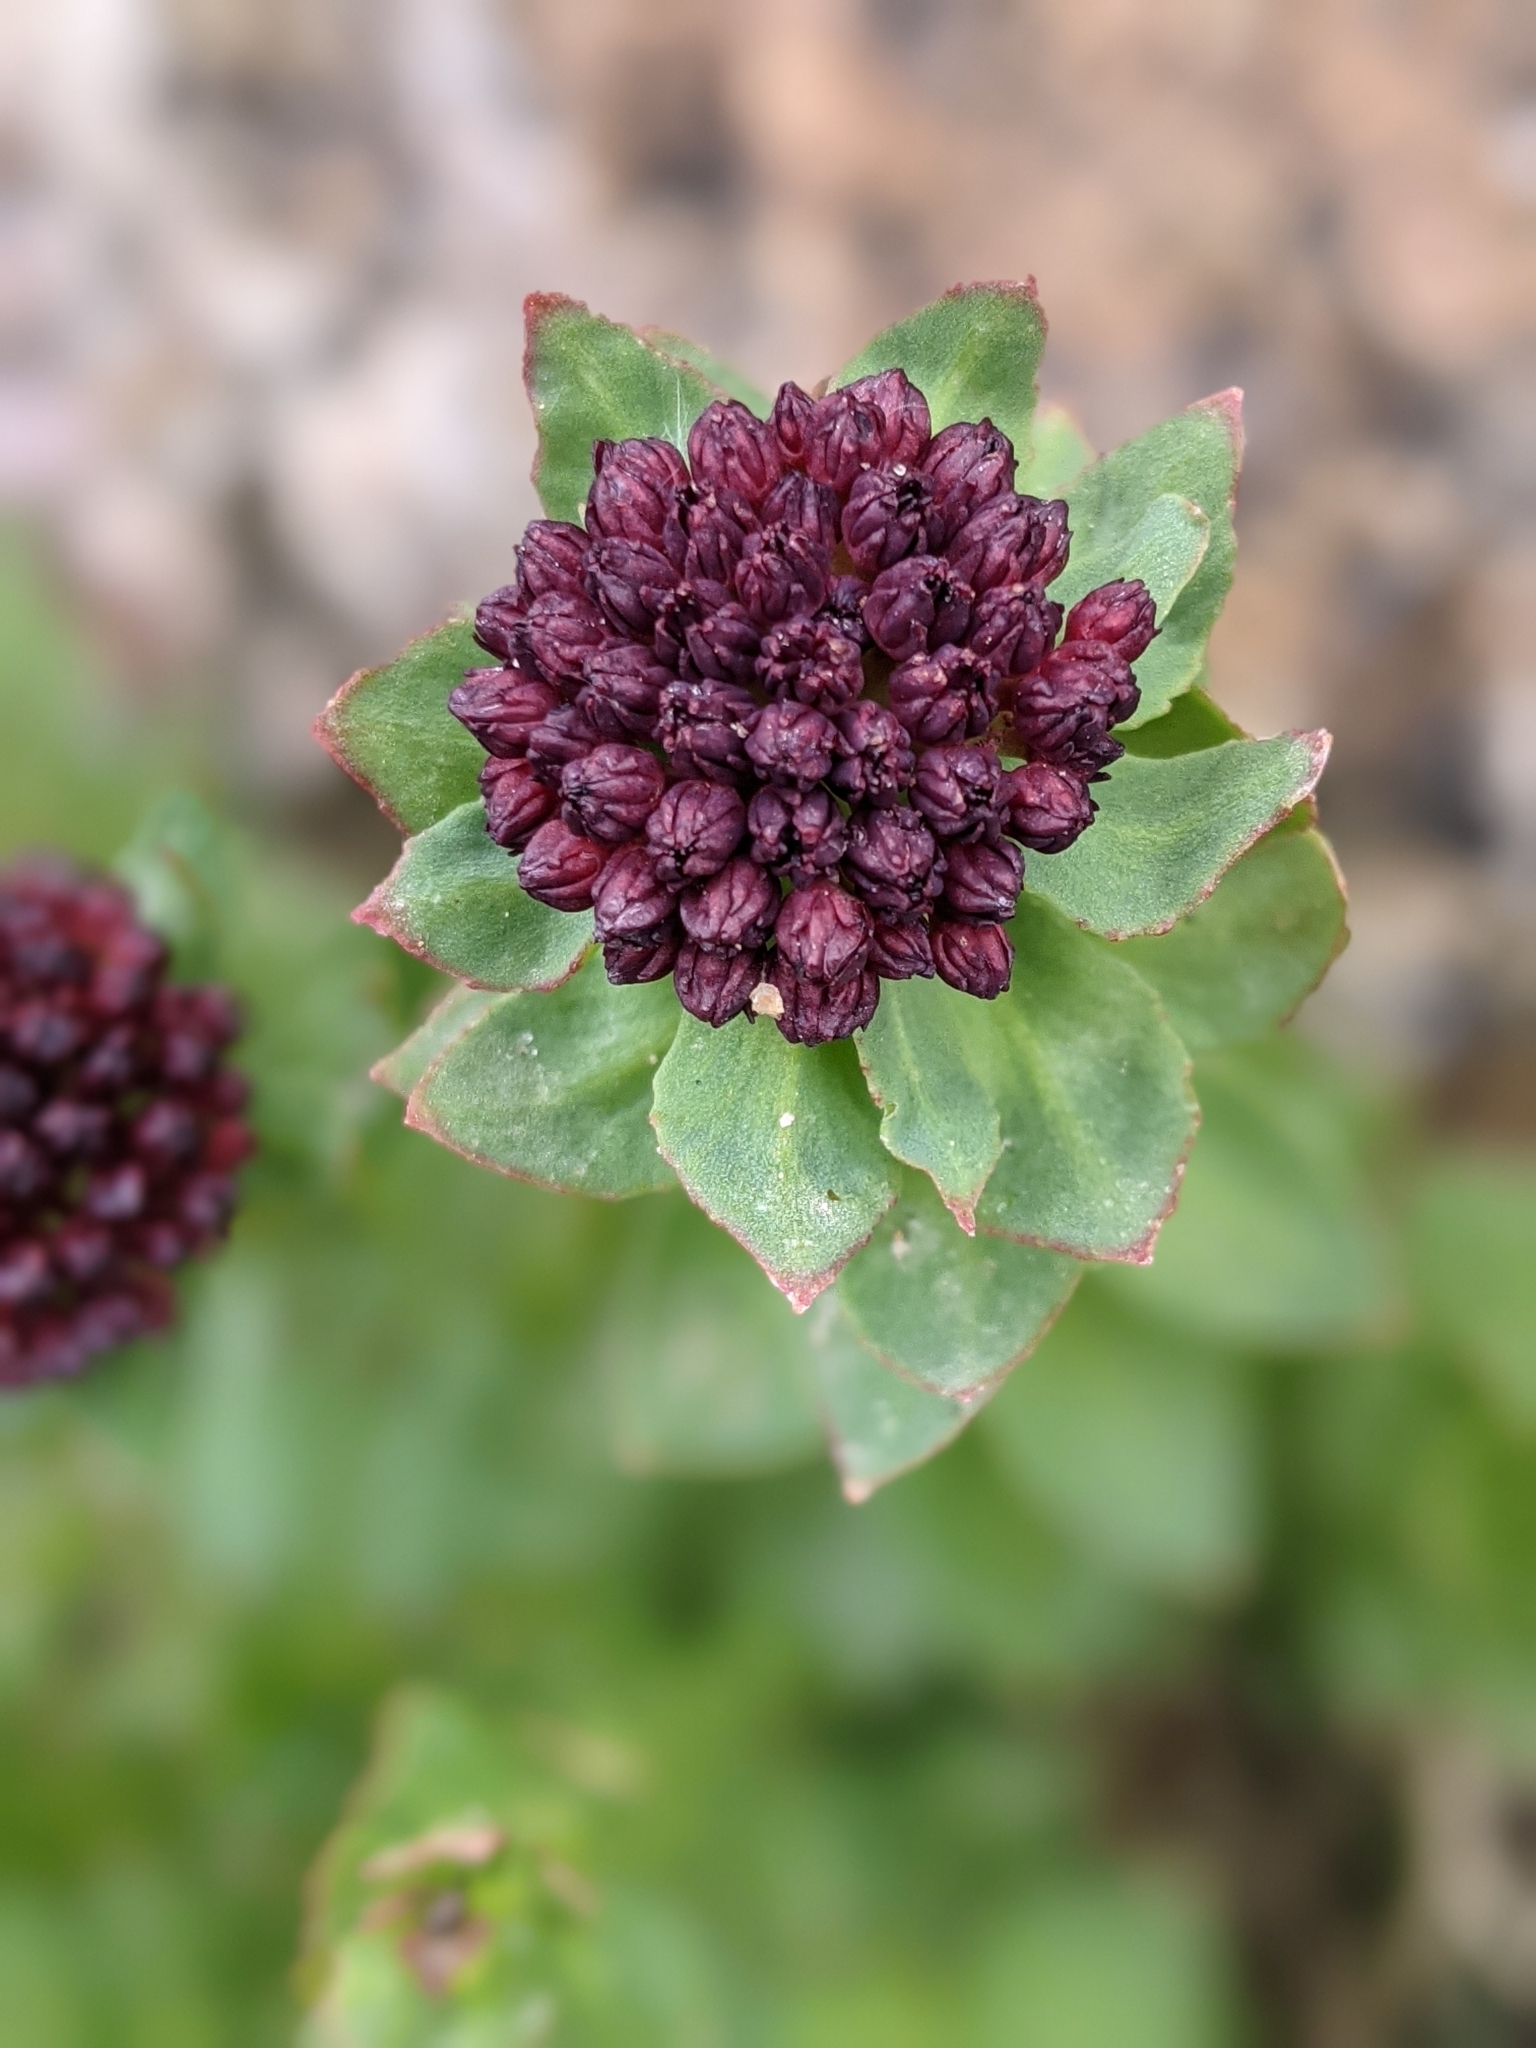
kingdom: Plantae
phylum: Tracheophyta
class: Magnoliopsida
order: Saxifragales
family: Crassulaceae
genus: Rhodiola
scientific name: Rhodiola integrifolia
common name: Western roseroot
